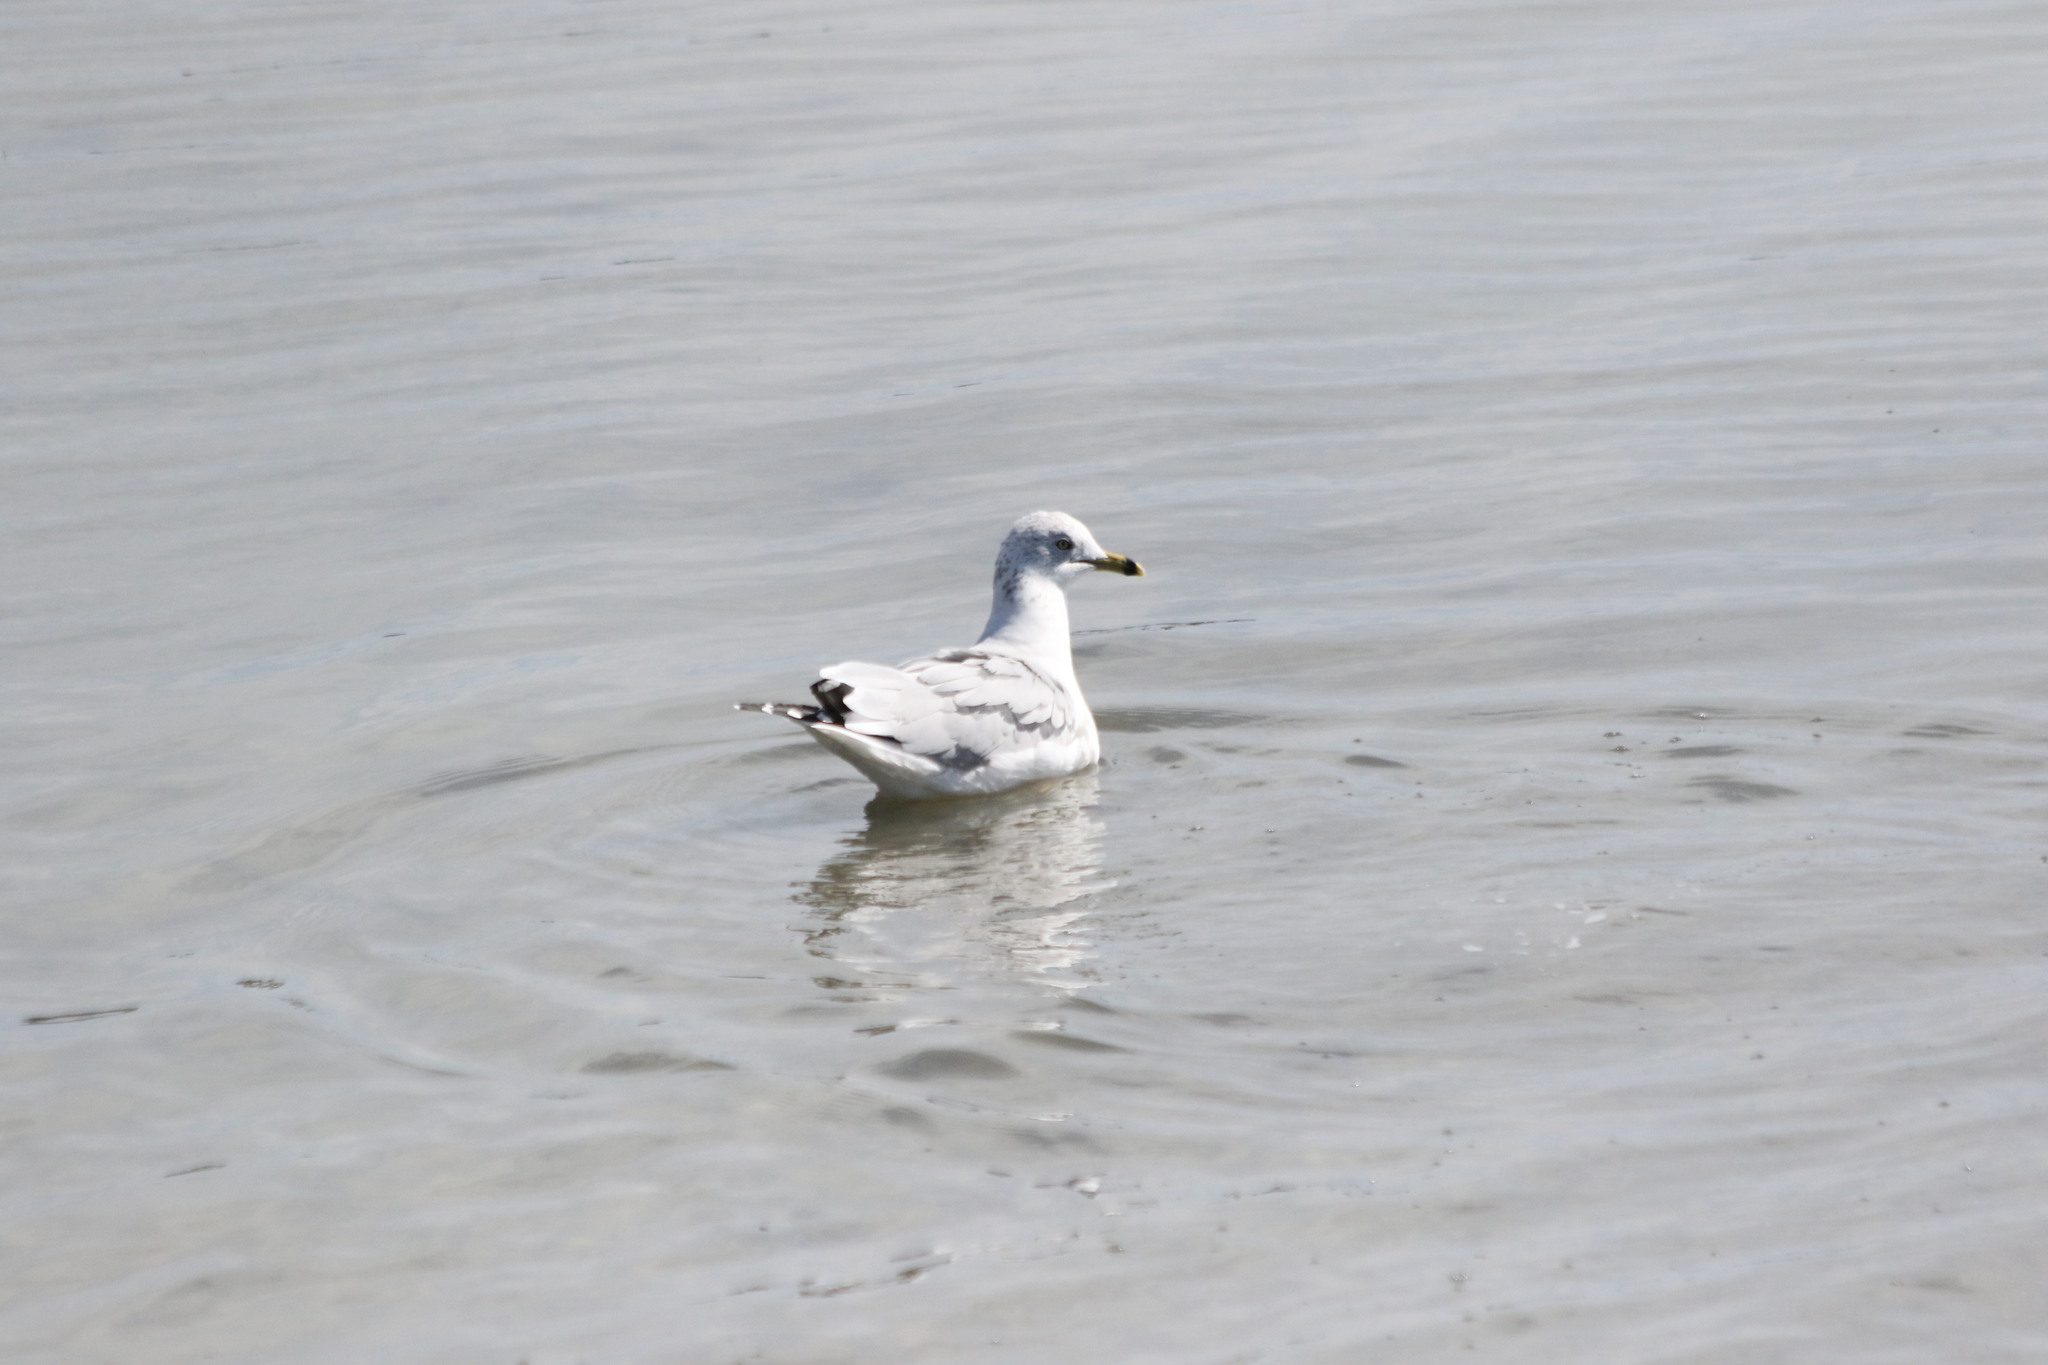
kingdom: Animalia
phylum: Chordata
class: Aves
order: Charadriiformes
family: Laridae
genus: Larus
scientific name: Larus delawarensis
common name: Ring-billed gull
